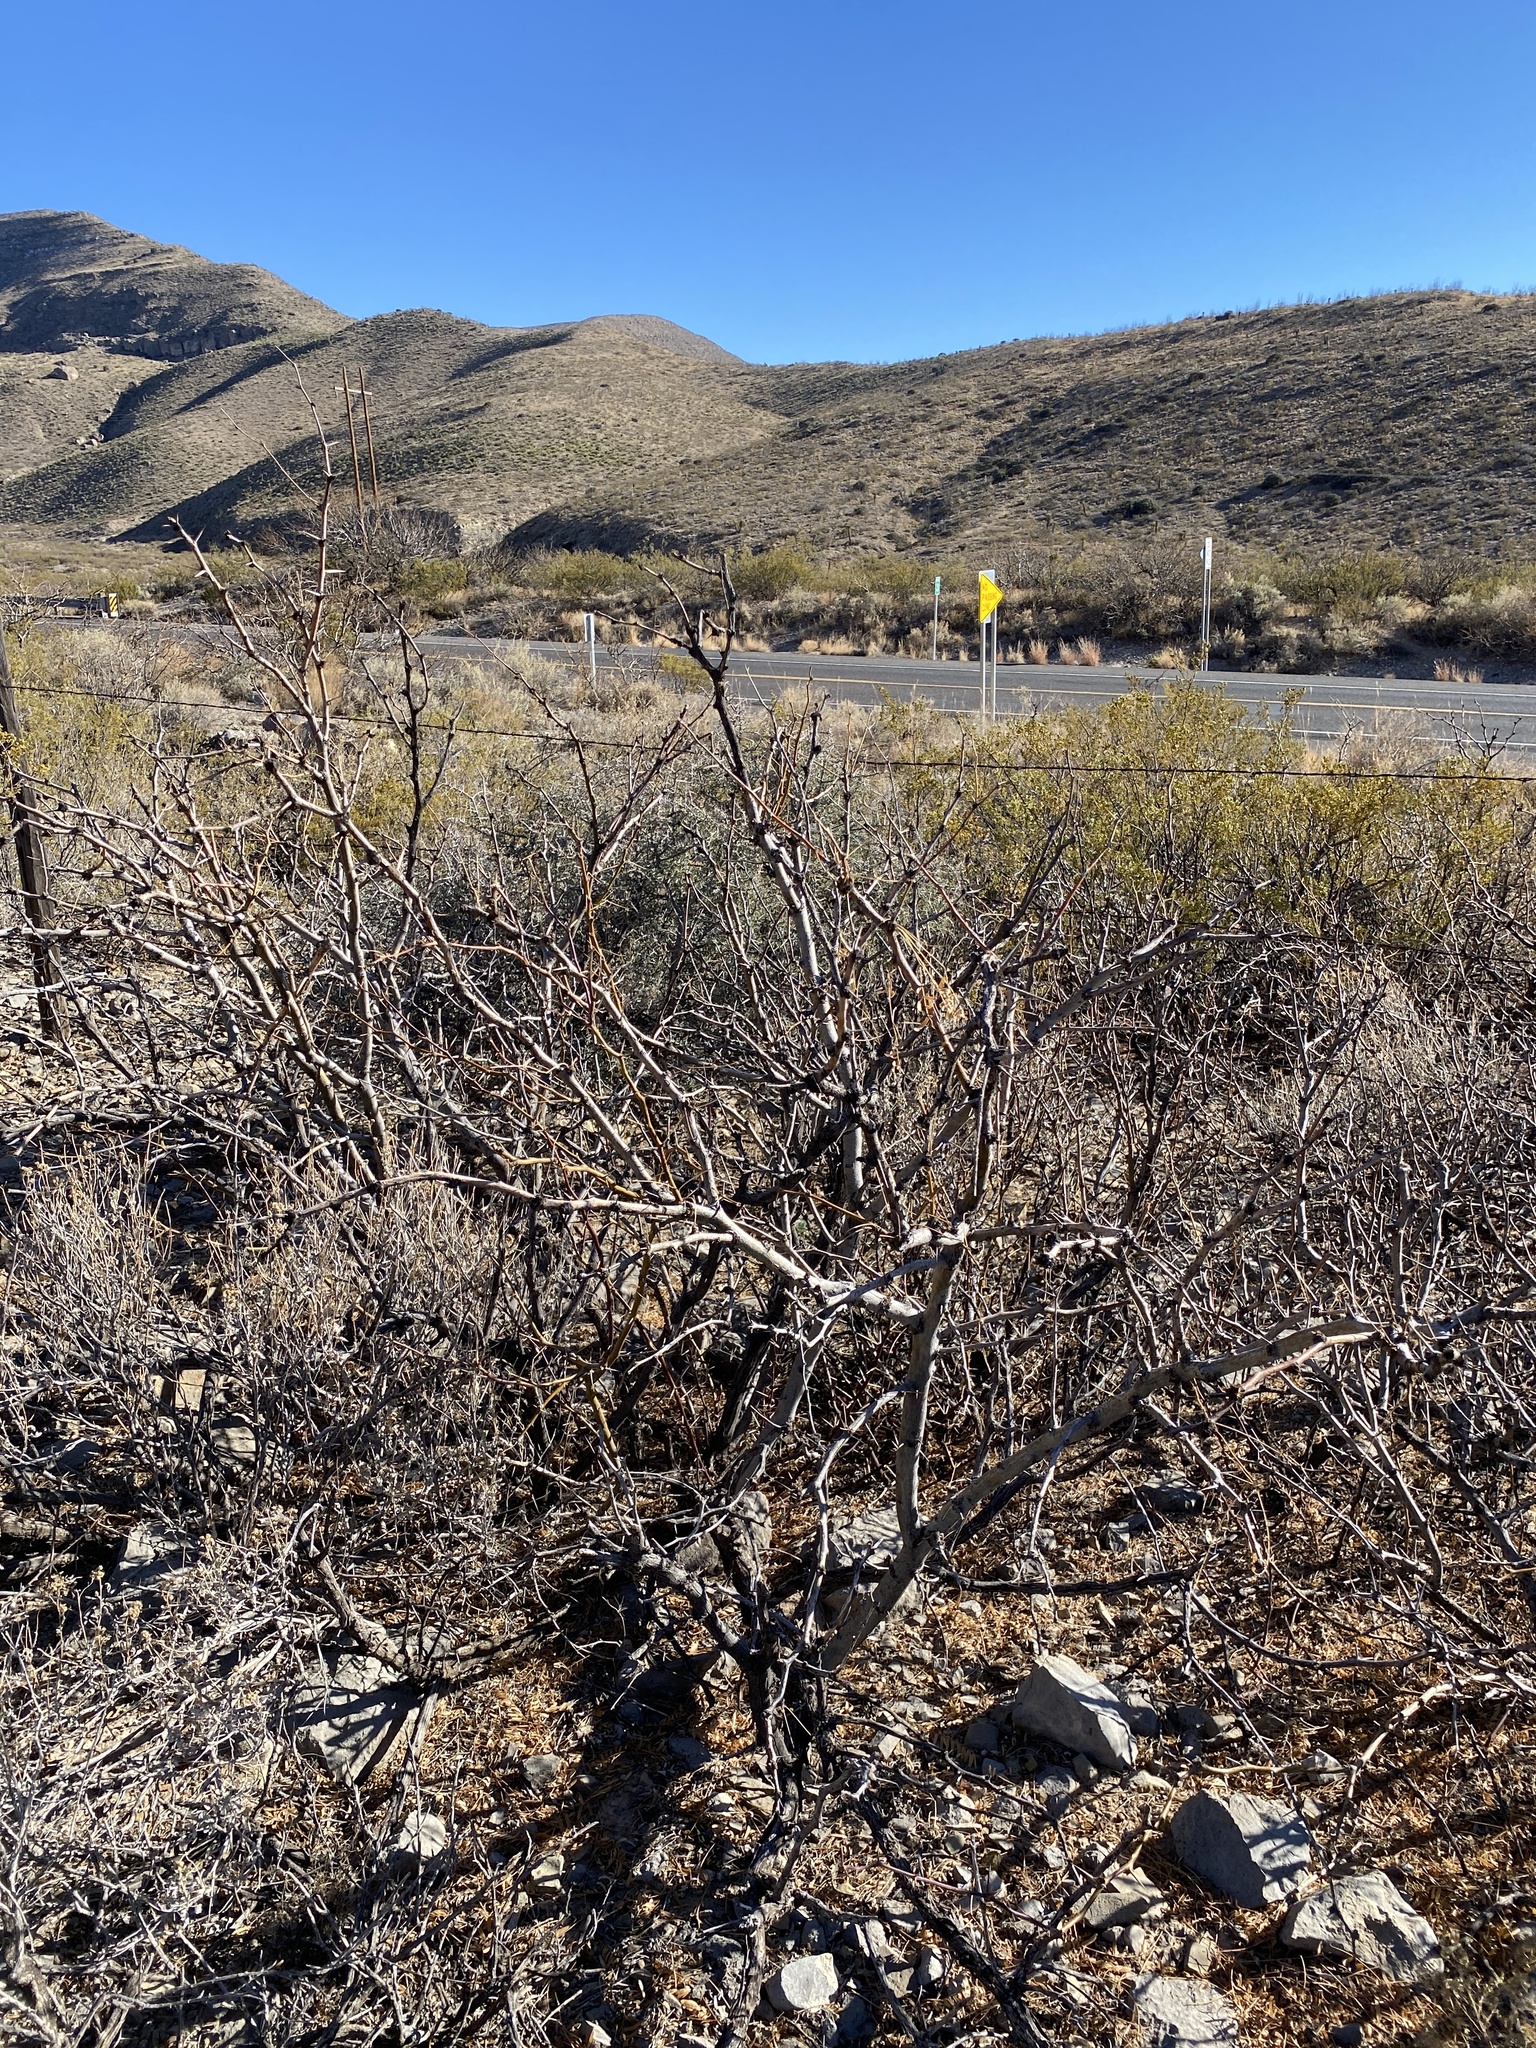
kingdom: Plantae
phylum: Tracheophyta
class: Magnoliopsida
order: Fabales
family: Fabaceae
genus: Prosopis
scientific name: Prosopis glandulosa
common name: Honey mesquite
